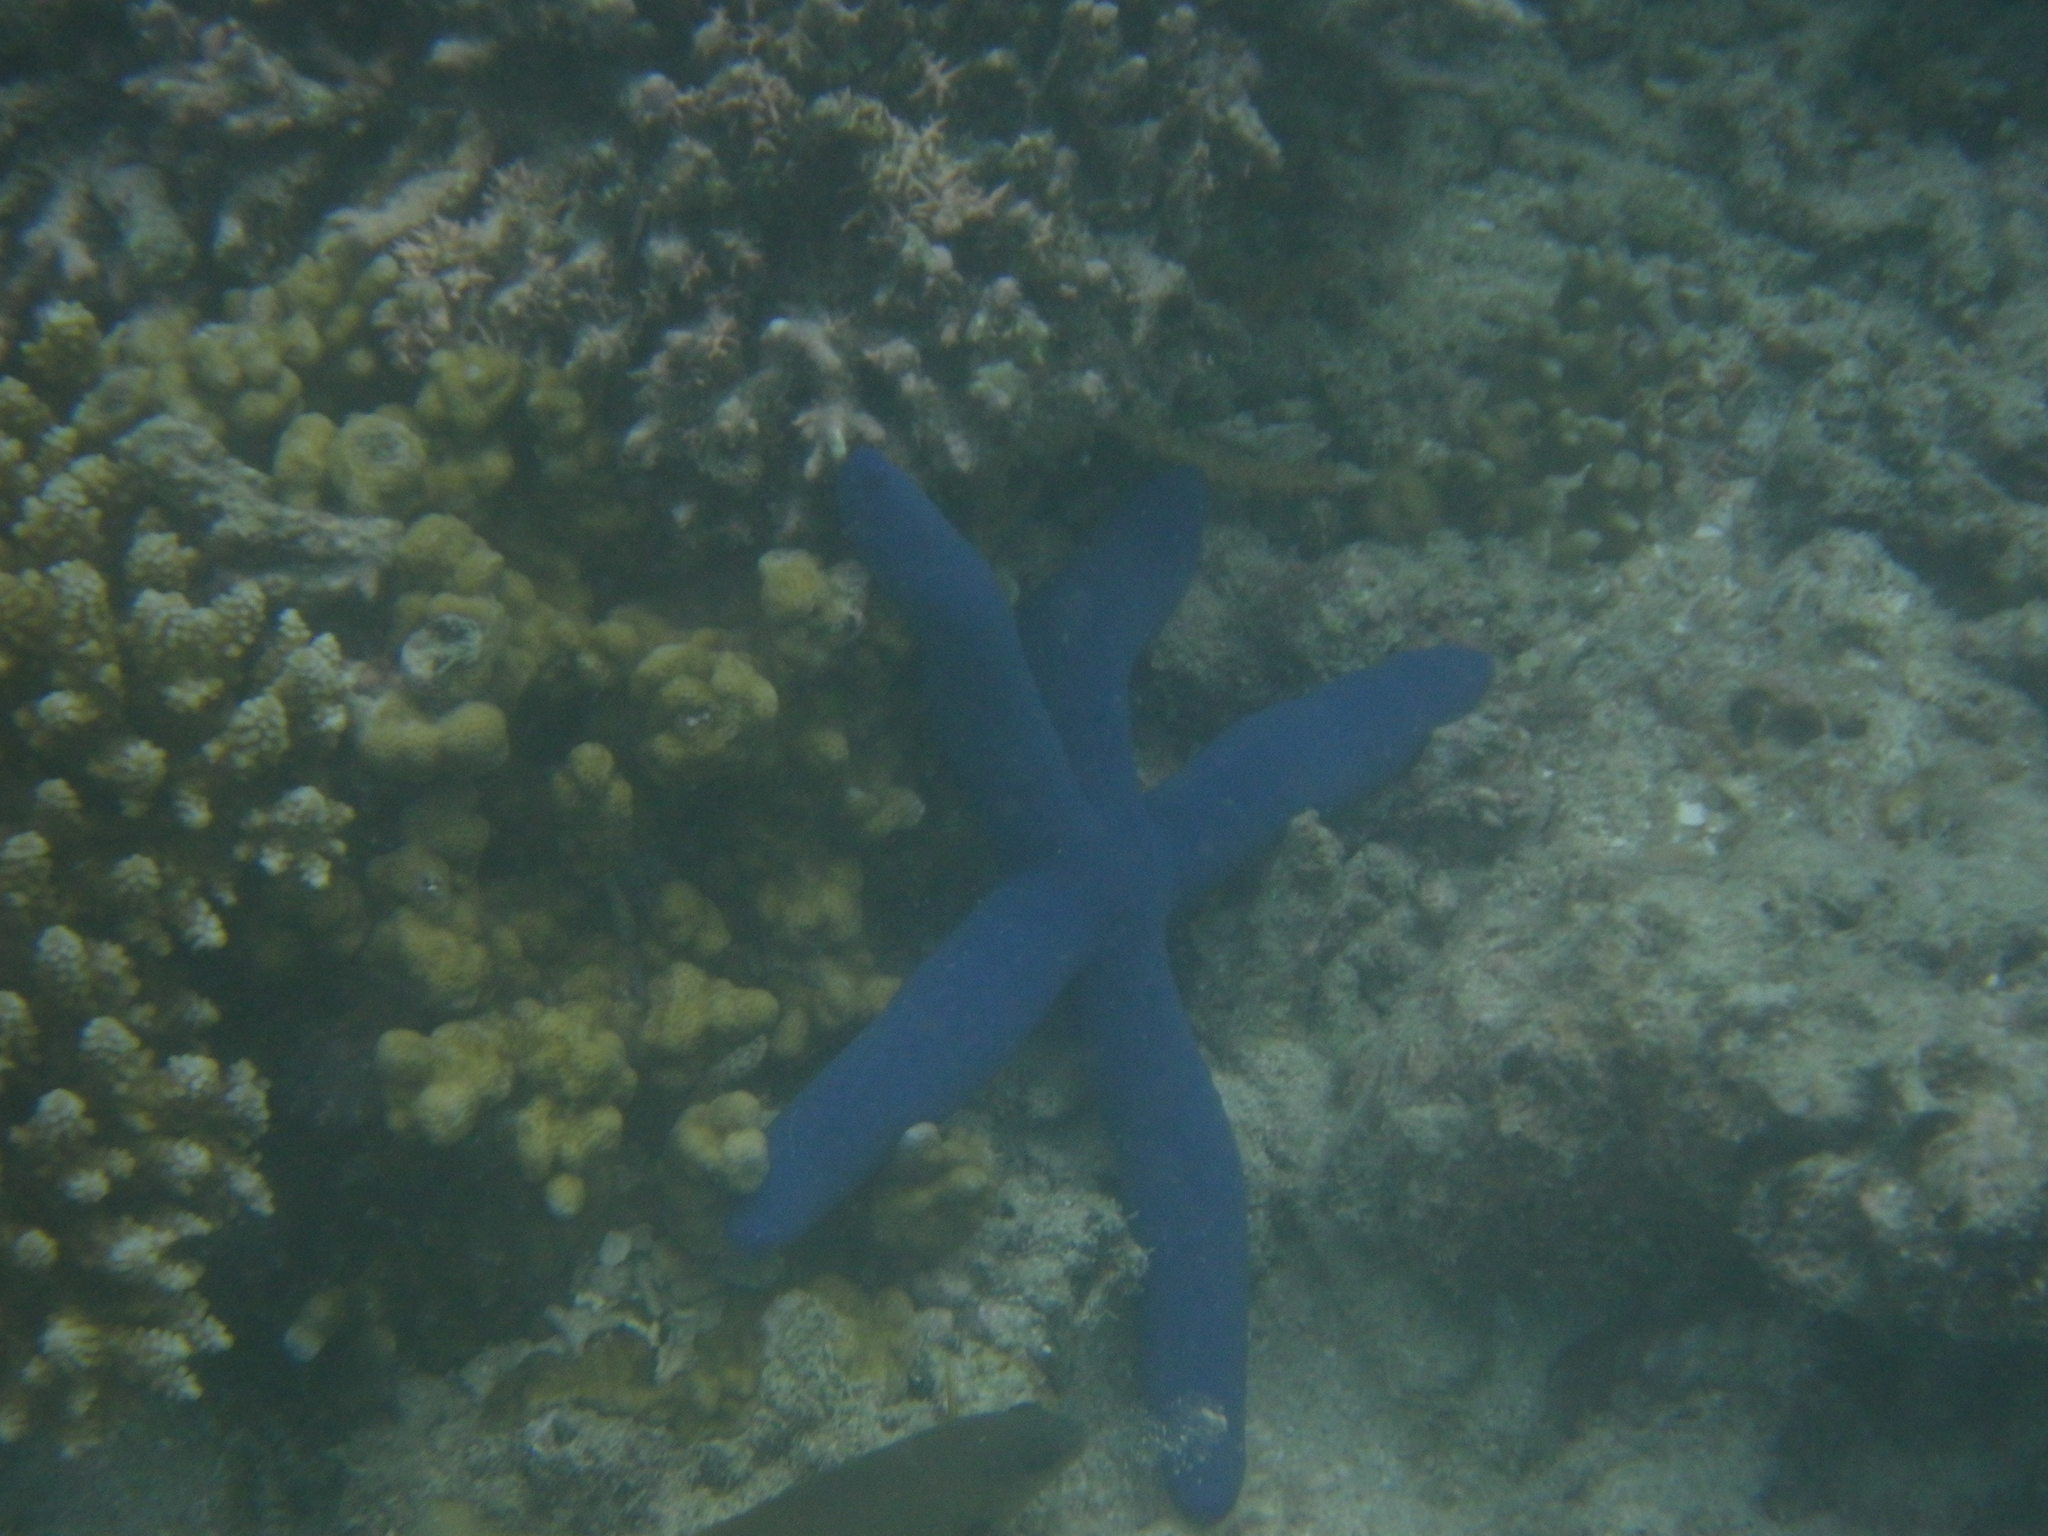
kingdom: Animalia
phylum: Echinodermata
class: Asteroidea
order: Valvatida
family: Ophidiasteridae
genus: Linckia
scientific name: Linckia laevigata
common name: Azure sea star
